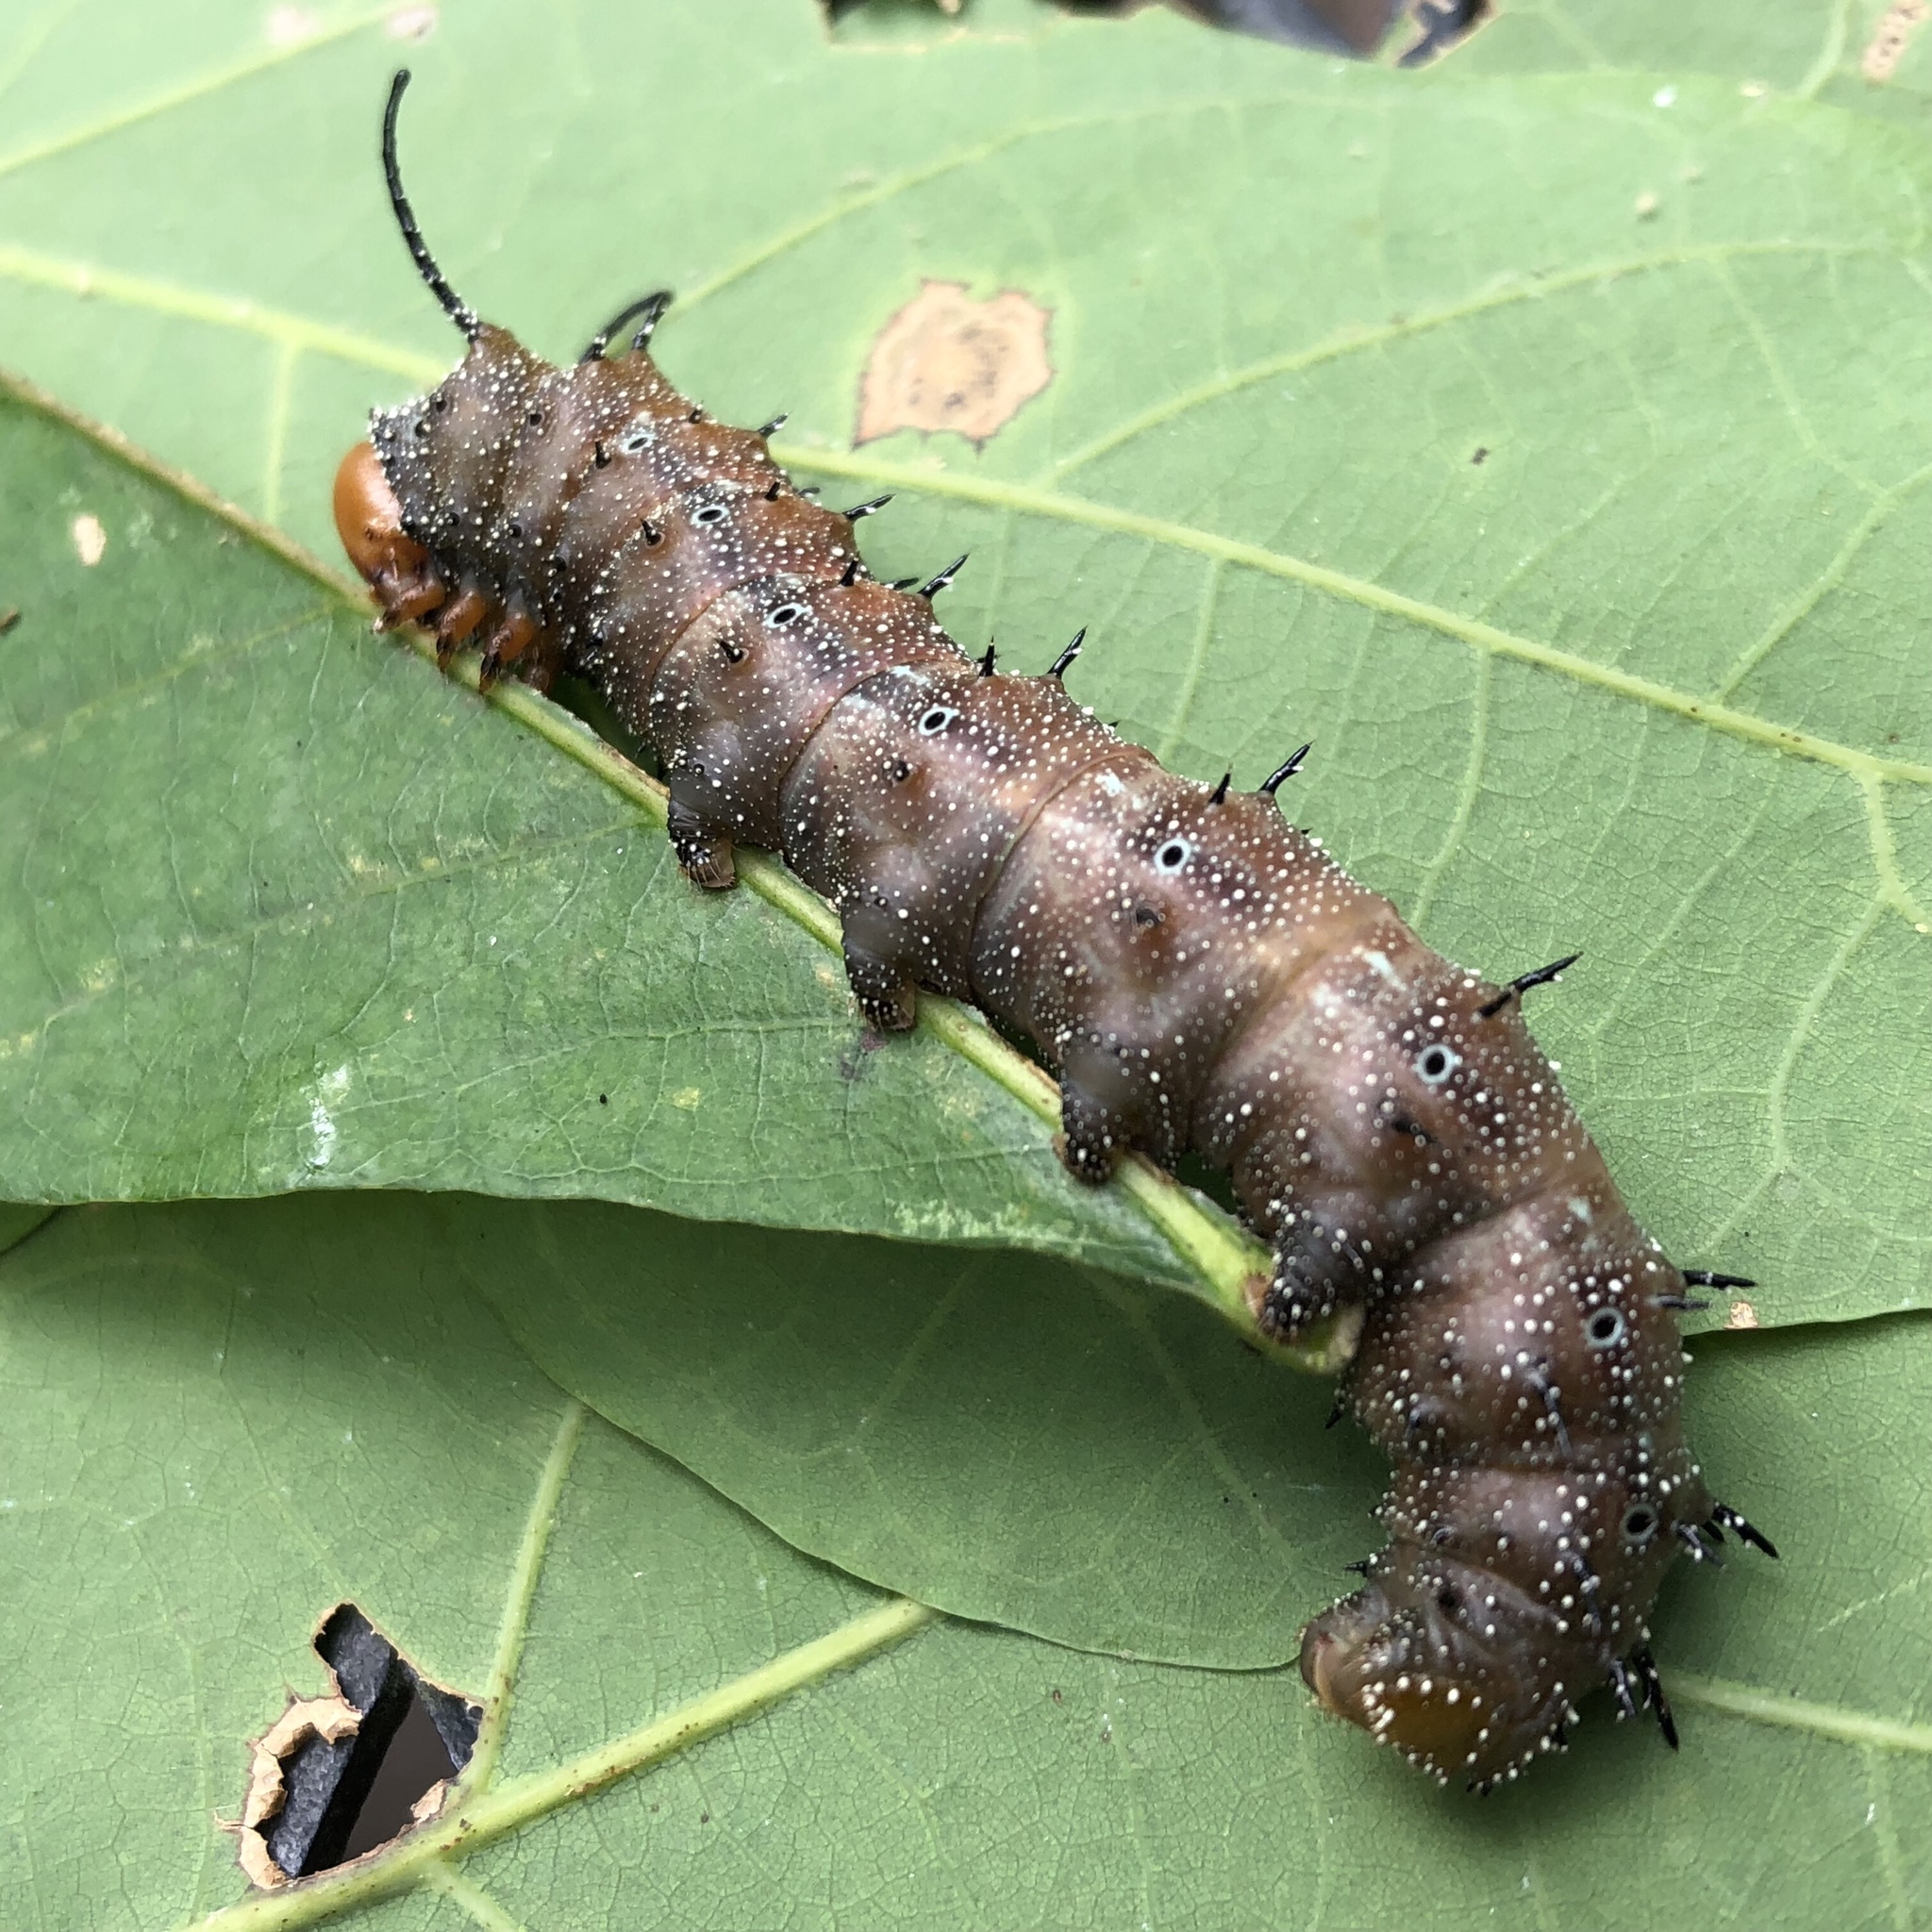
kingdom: Animalia
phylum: Arthropoda
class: Insecta
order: Lepidoptera
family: Saturniidae
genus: Anisota
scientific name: Anisota stigma
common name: Spiny oakworm moth
